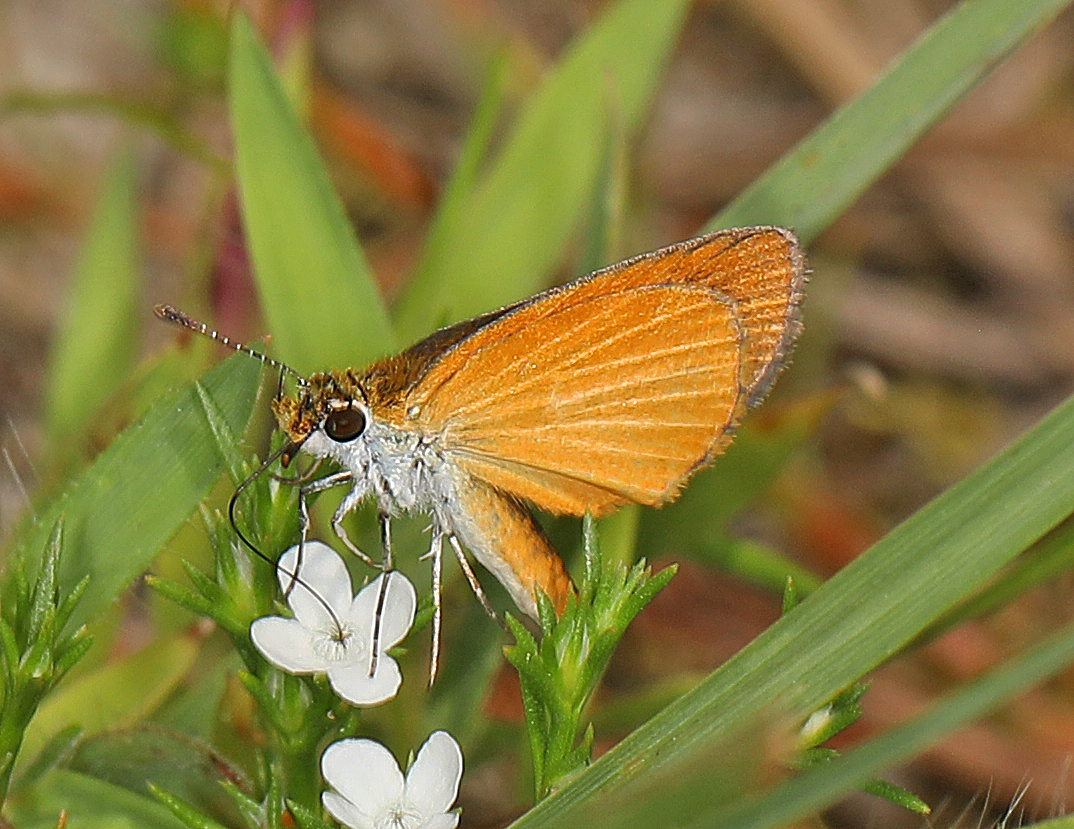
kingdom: Animalia
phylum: Arthropoda
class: Insecta
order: Lepidoptera
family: Hesperiidae
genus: Ancyloxypha
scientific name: Ancyloxypha numitor
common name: Least skipper
